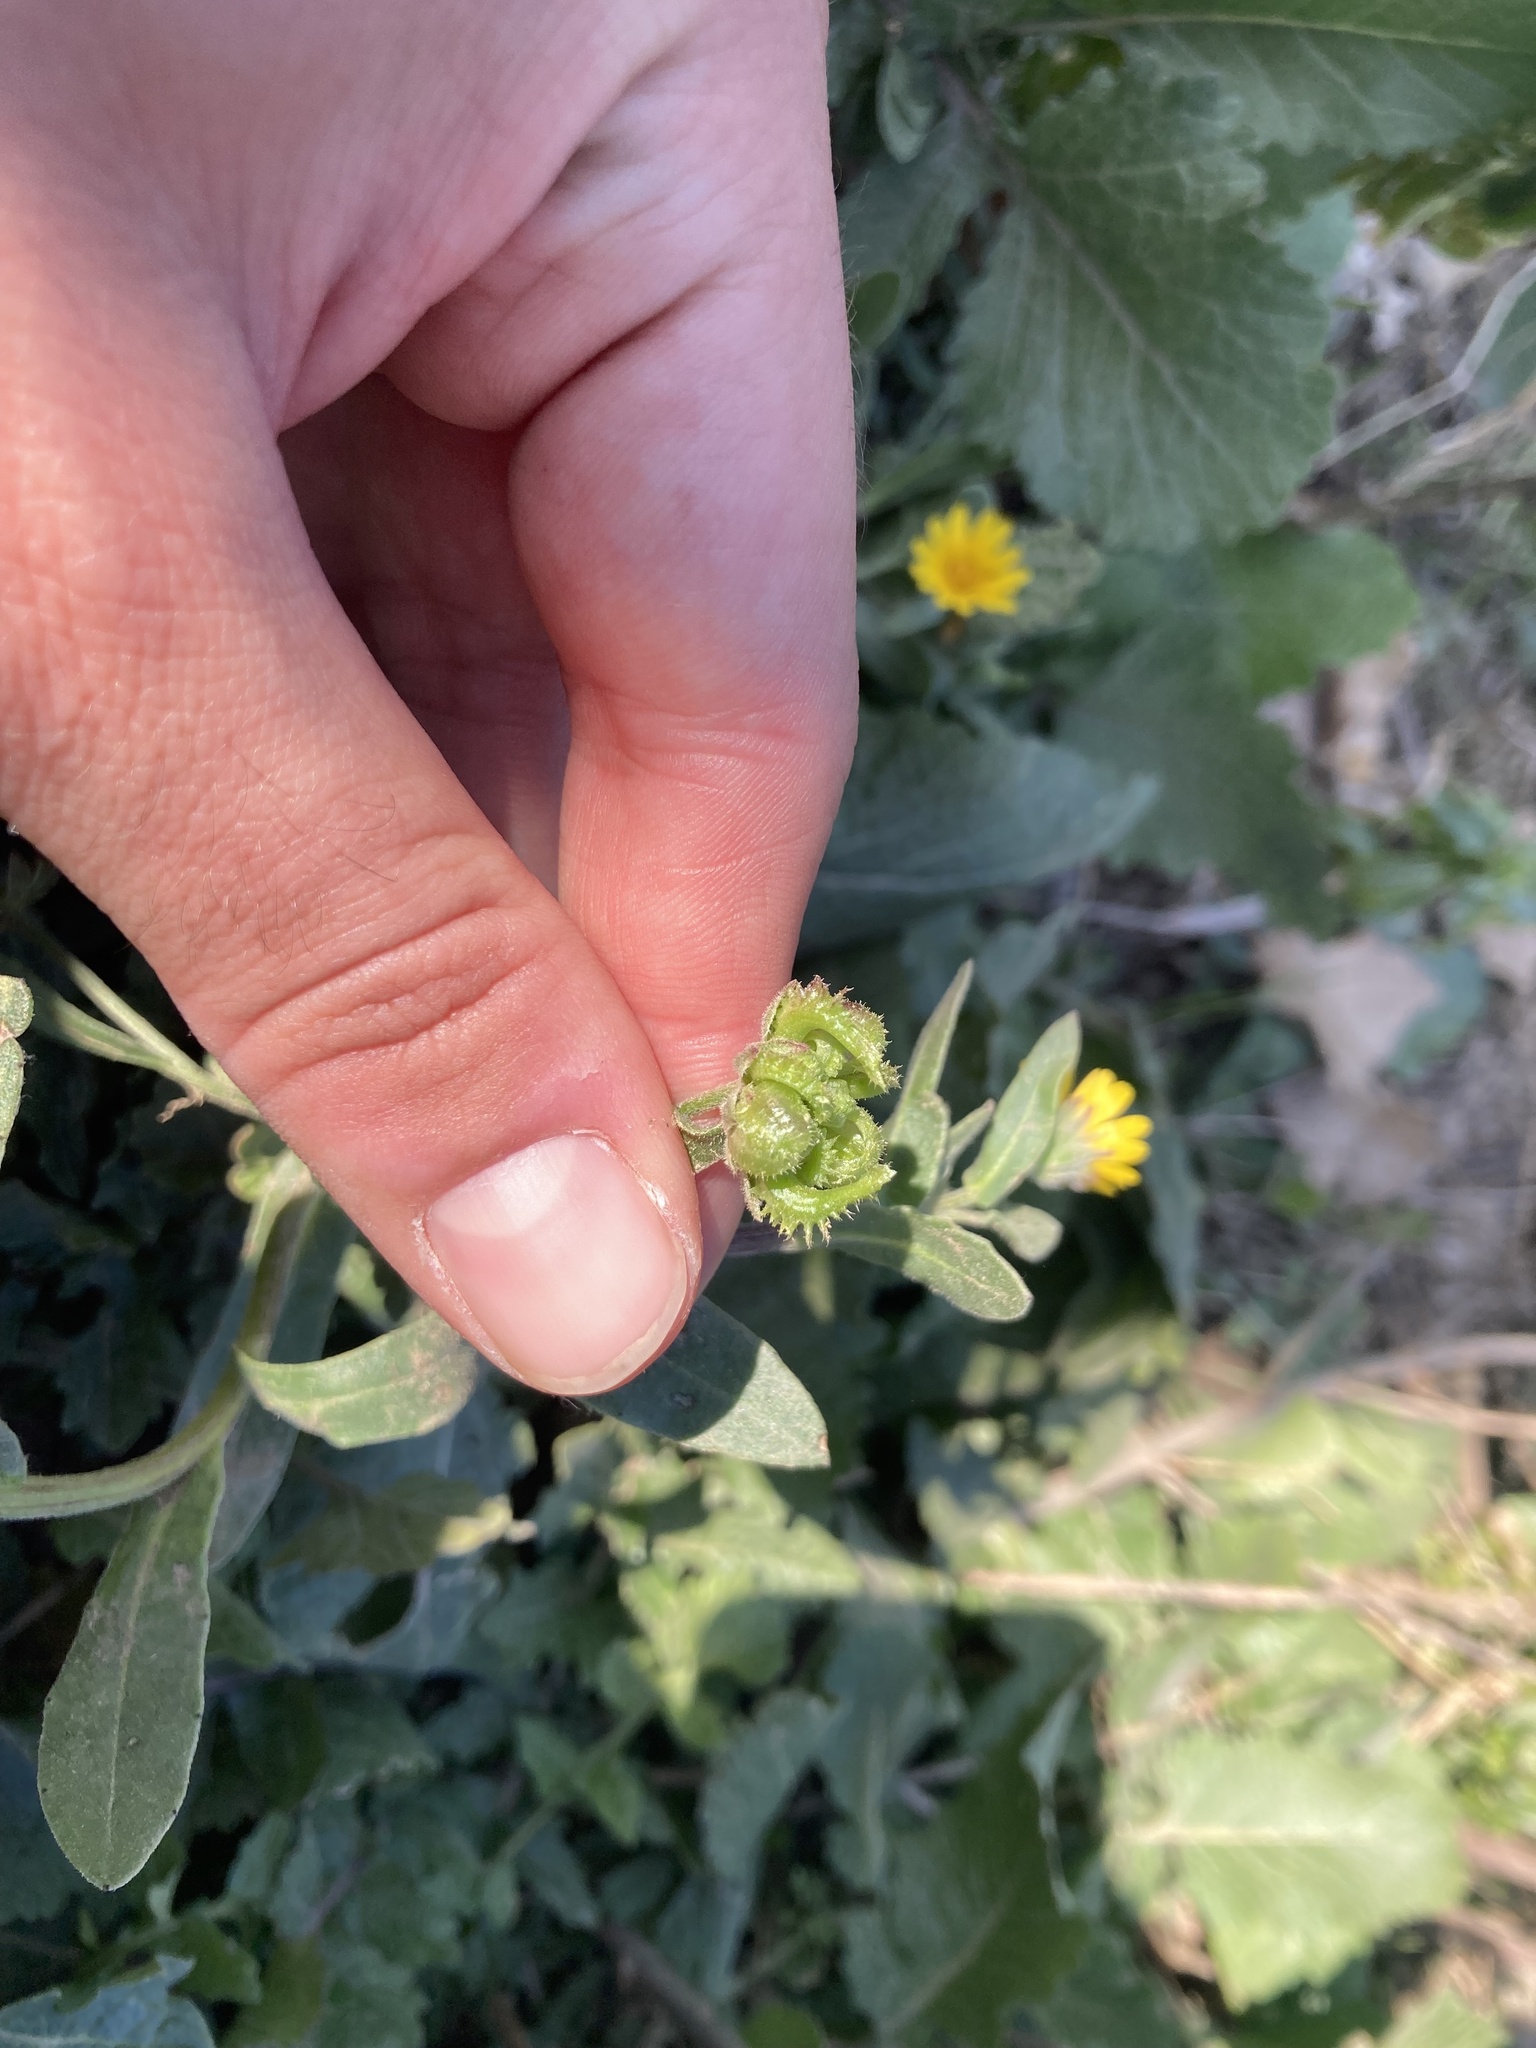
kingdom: Plantae
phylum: Tracheophyta
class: Magnoliopsida
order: Asterales
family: Asteraceae
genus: Calendula
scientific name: Calendula arvensis
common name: Field marigold
